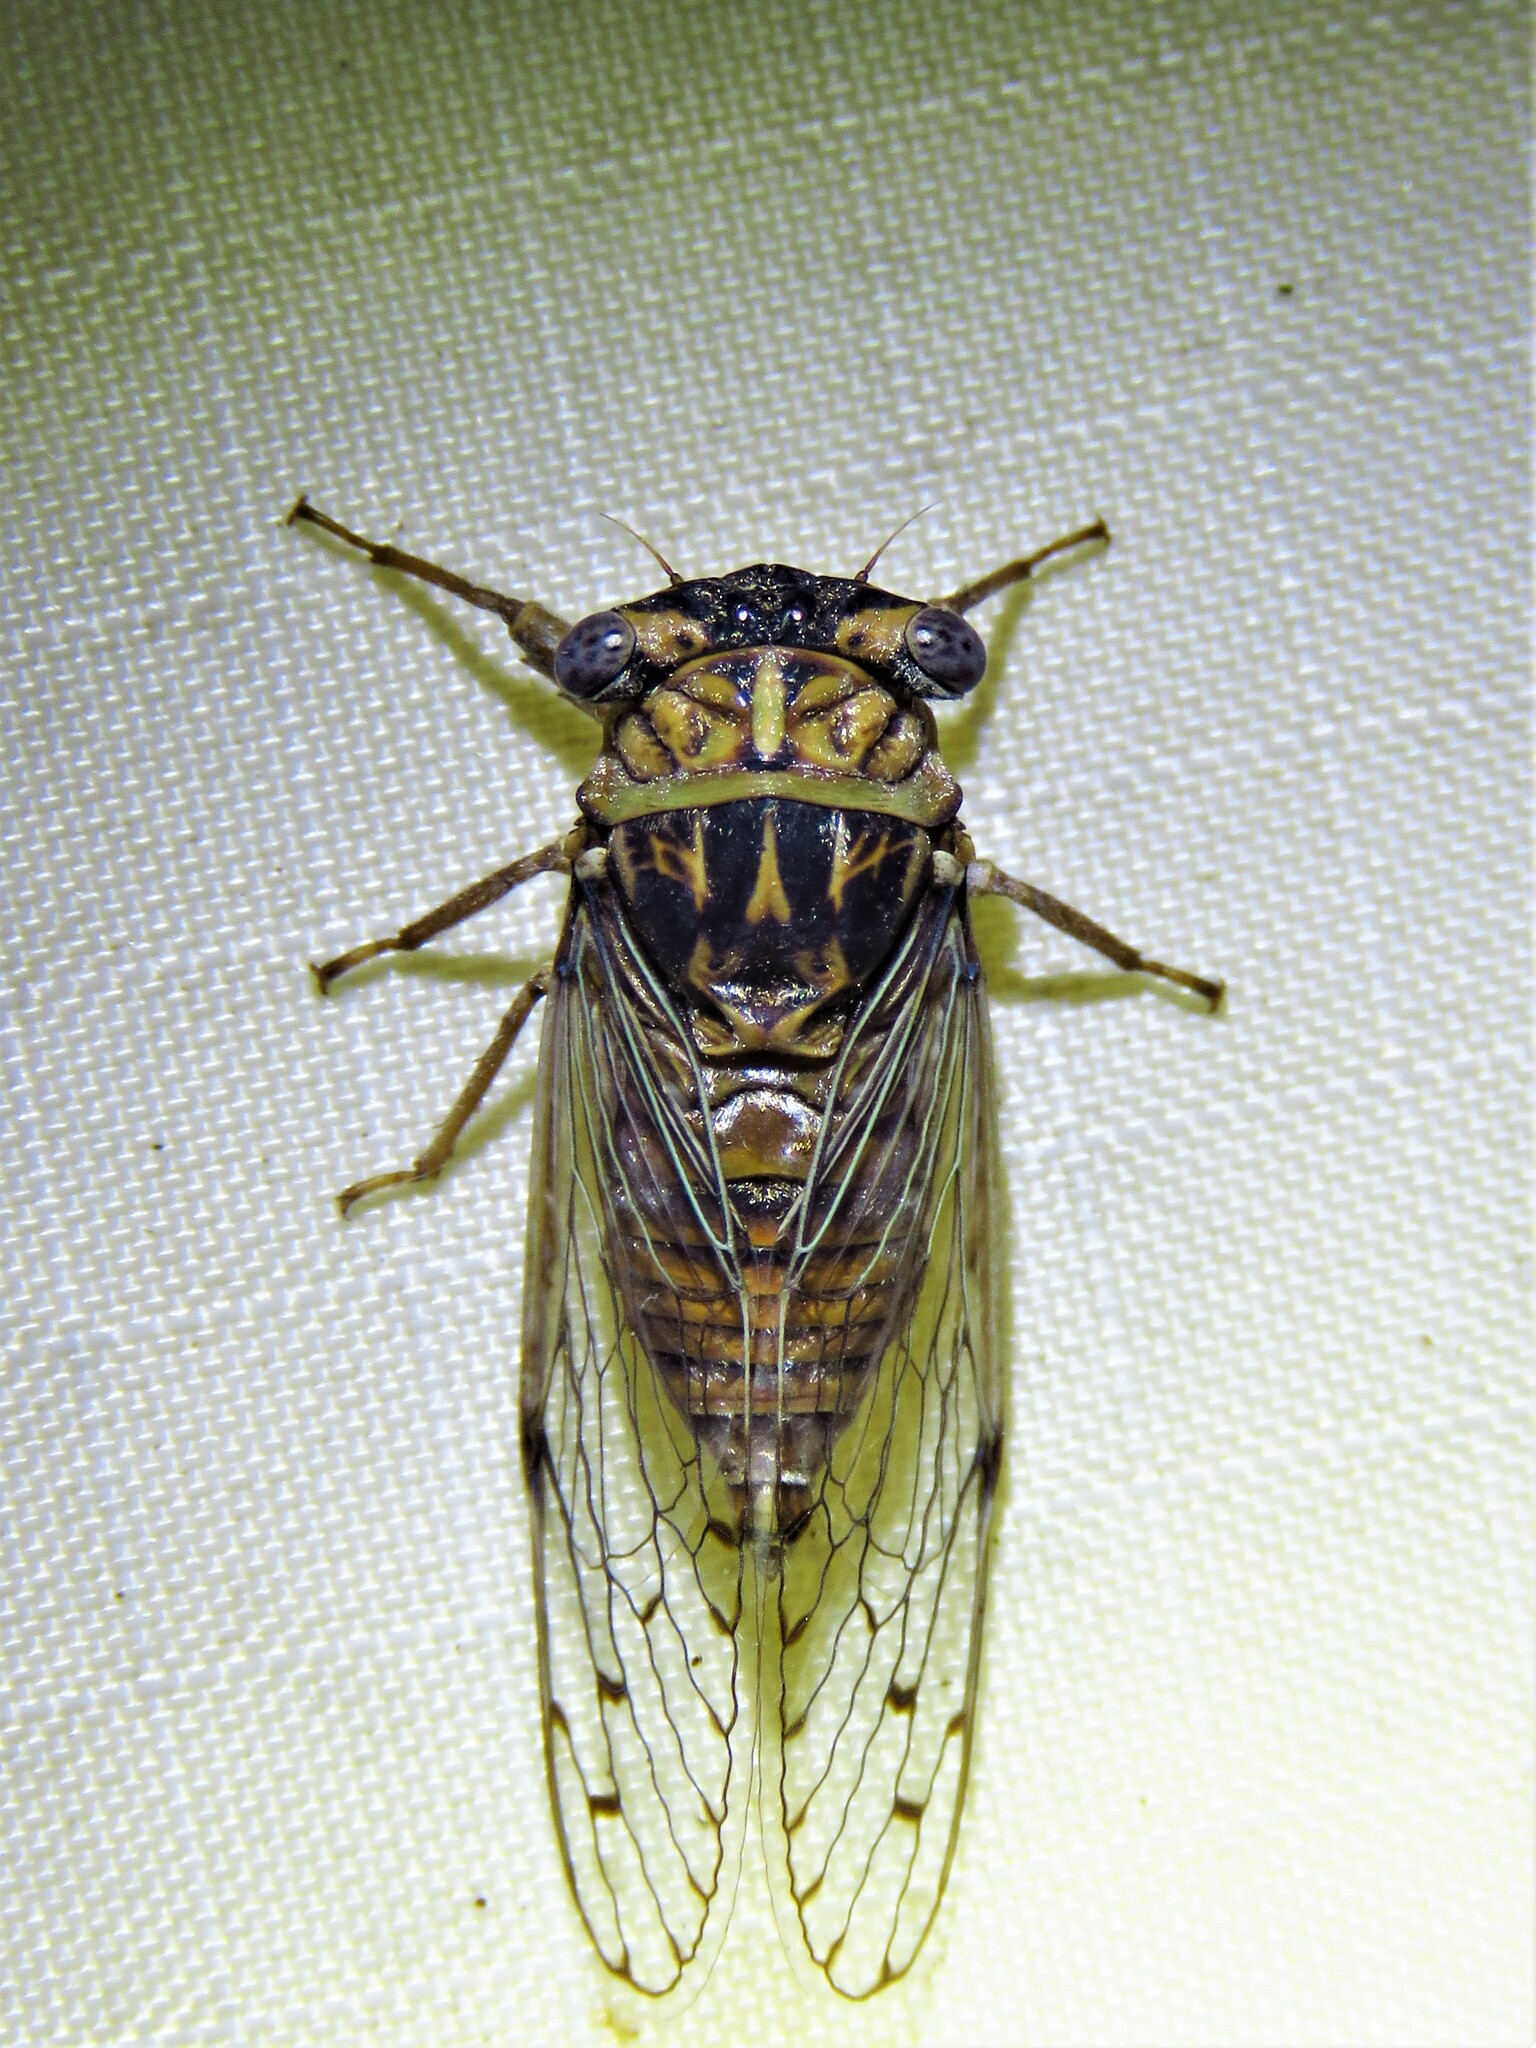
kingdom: Animalia
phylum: Arthropoda
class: Insecta
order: Hemiptera
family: Cicadidae
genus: Pacarina
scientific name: Pacarina puella
